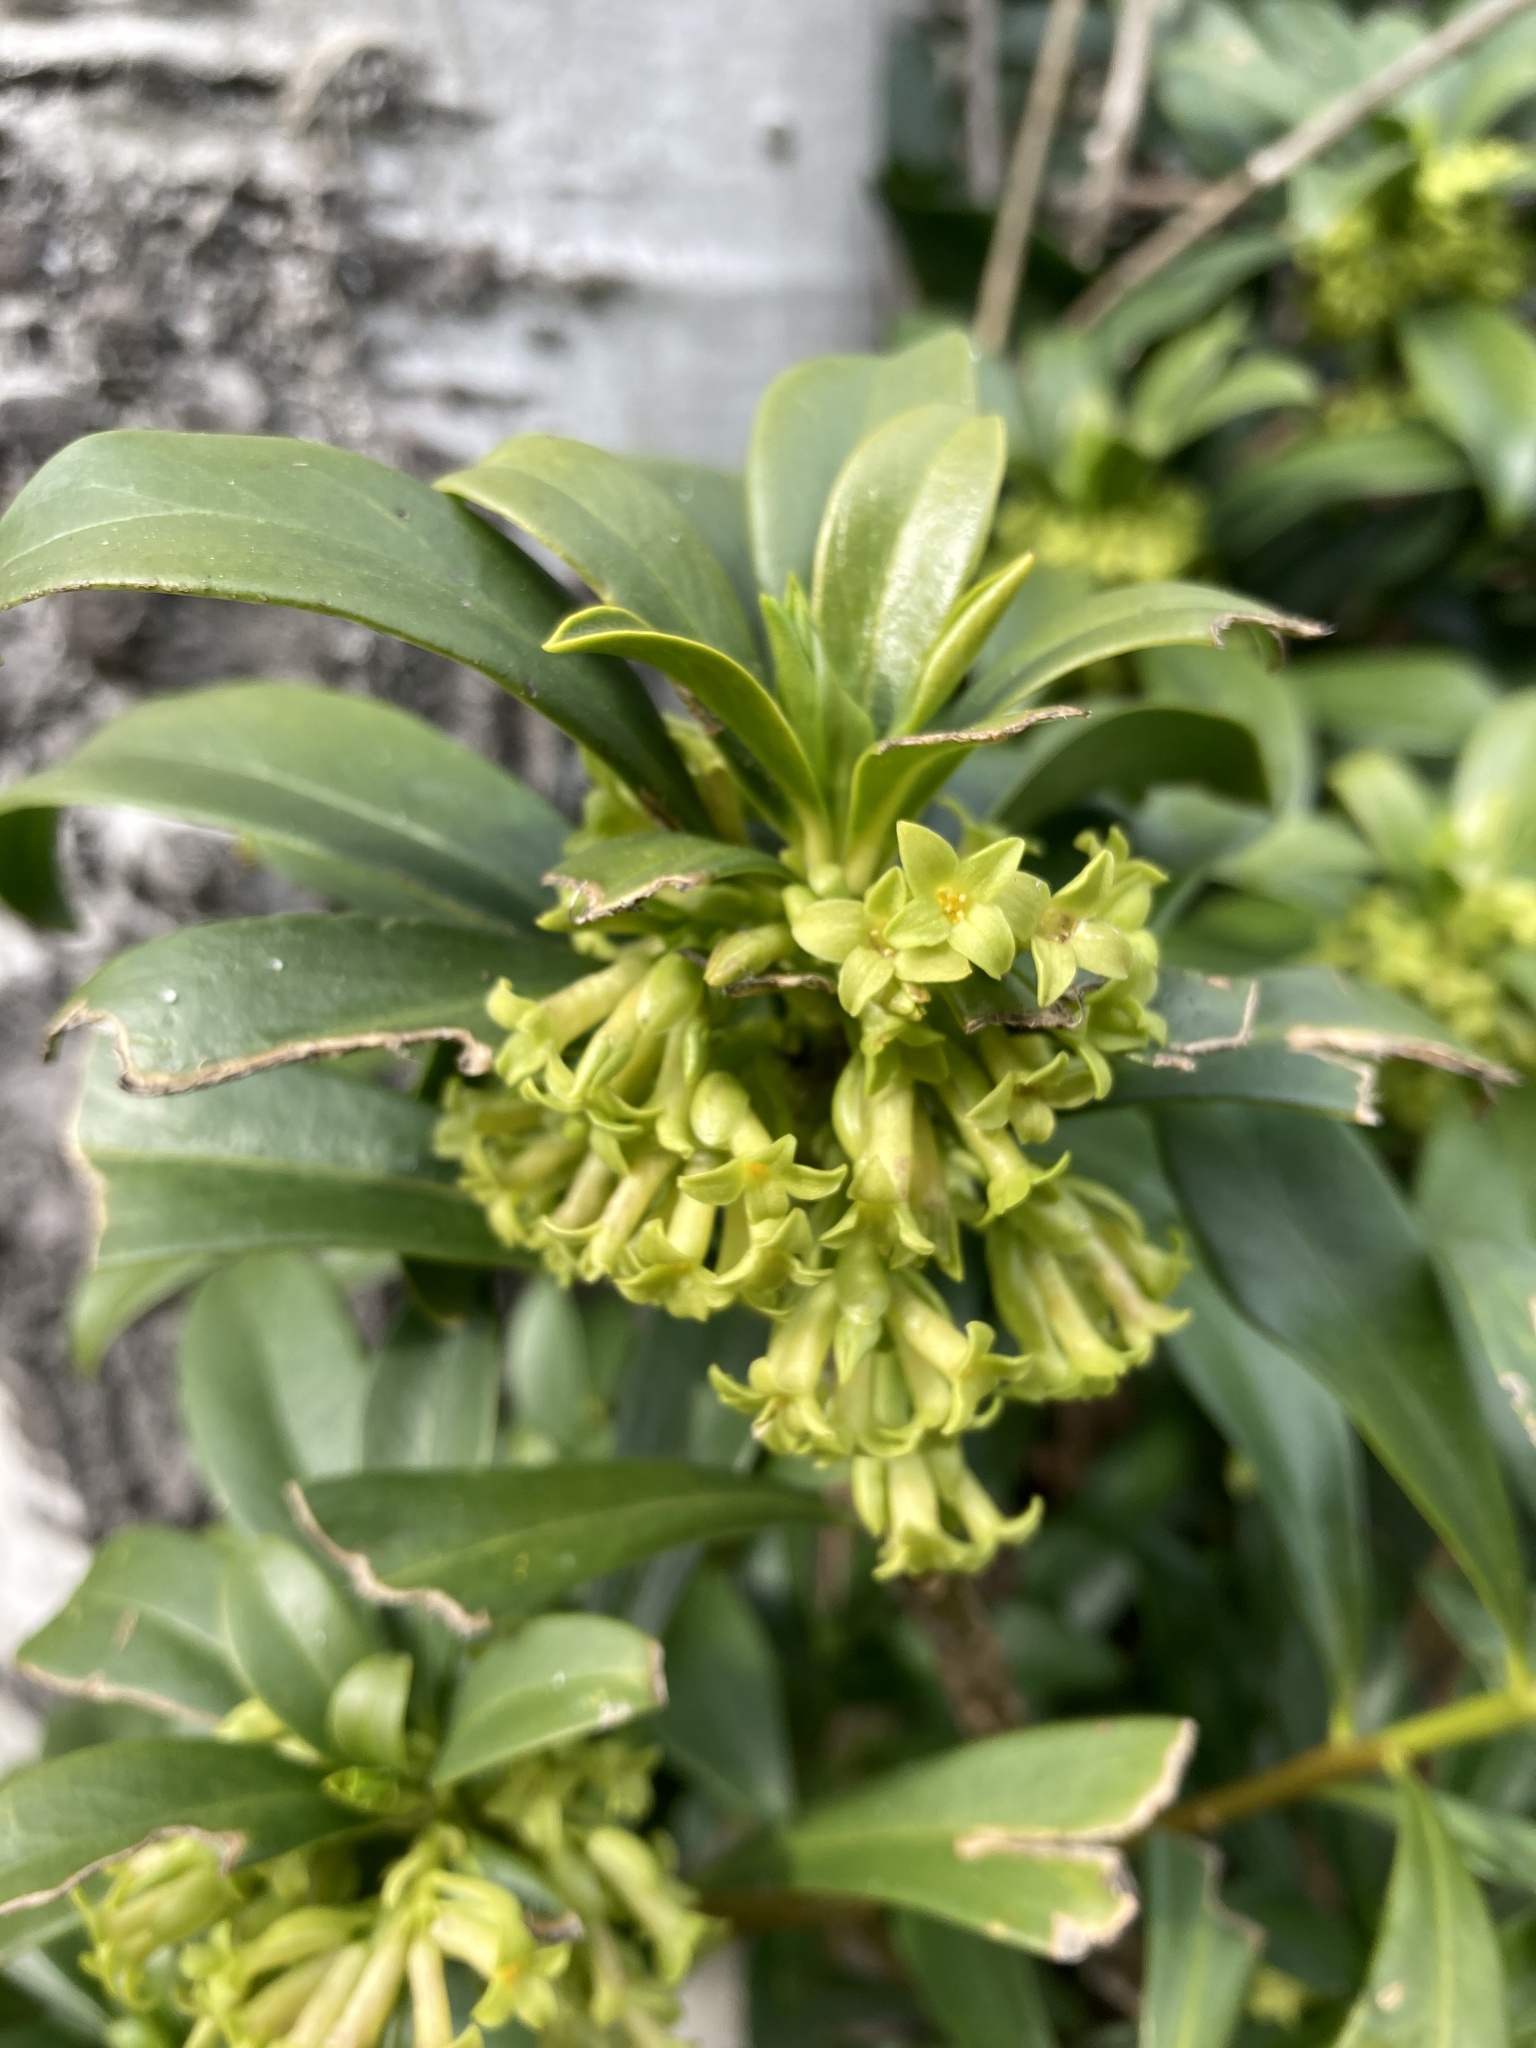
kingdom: Plantae
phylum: Tracheophyta
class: Magnoliopsida
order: Malvales
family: Thymelaeaceae
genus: Daphne
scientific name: Daphne laureola
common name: Spurge-laurel
